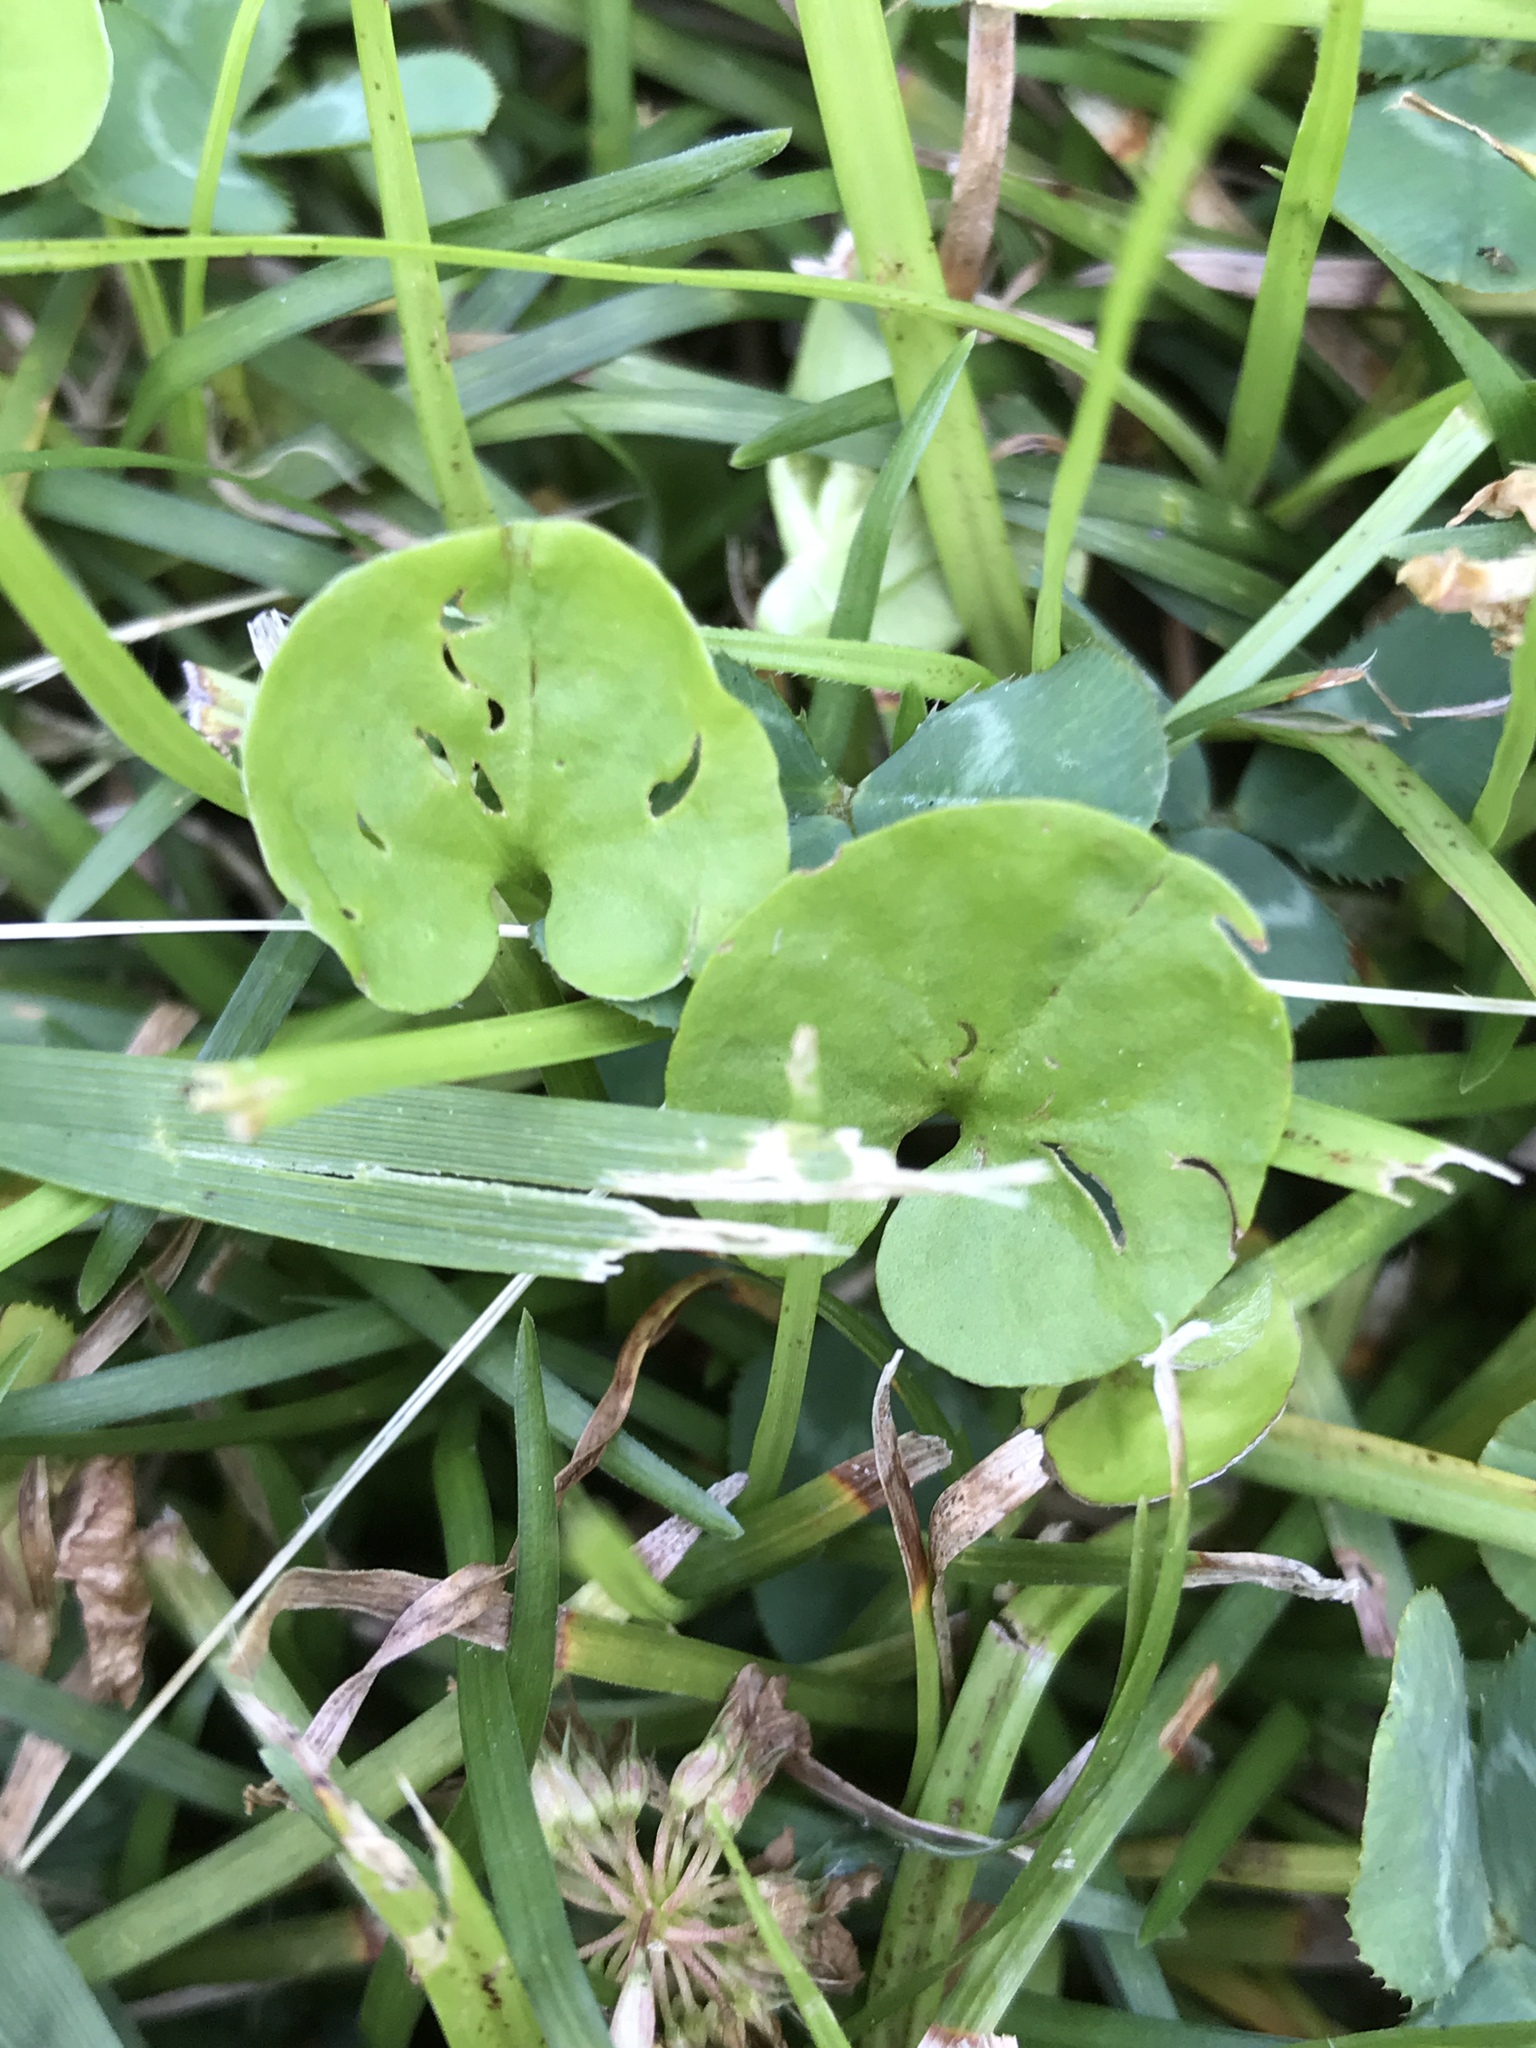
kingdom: Plantae
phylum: Tracheophyta
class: Magnoliopsida
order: Solanales
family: Convolvulaceae
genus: Dichondra
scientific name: Dichondra carolinensis
